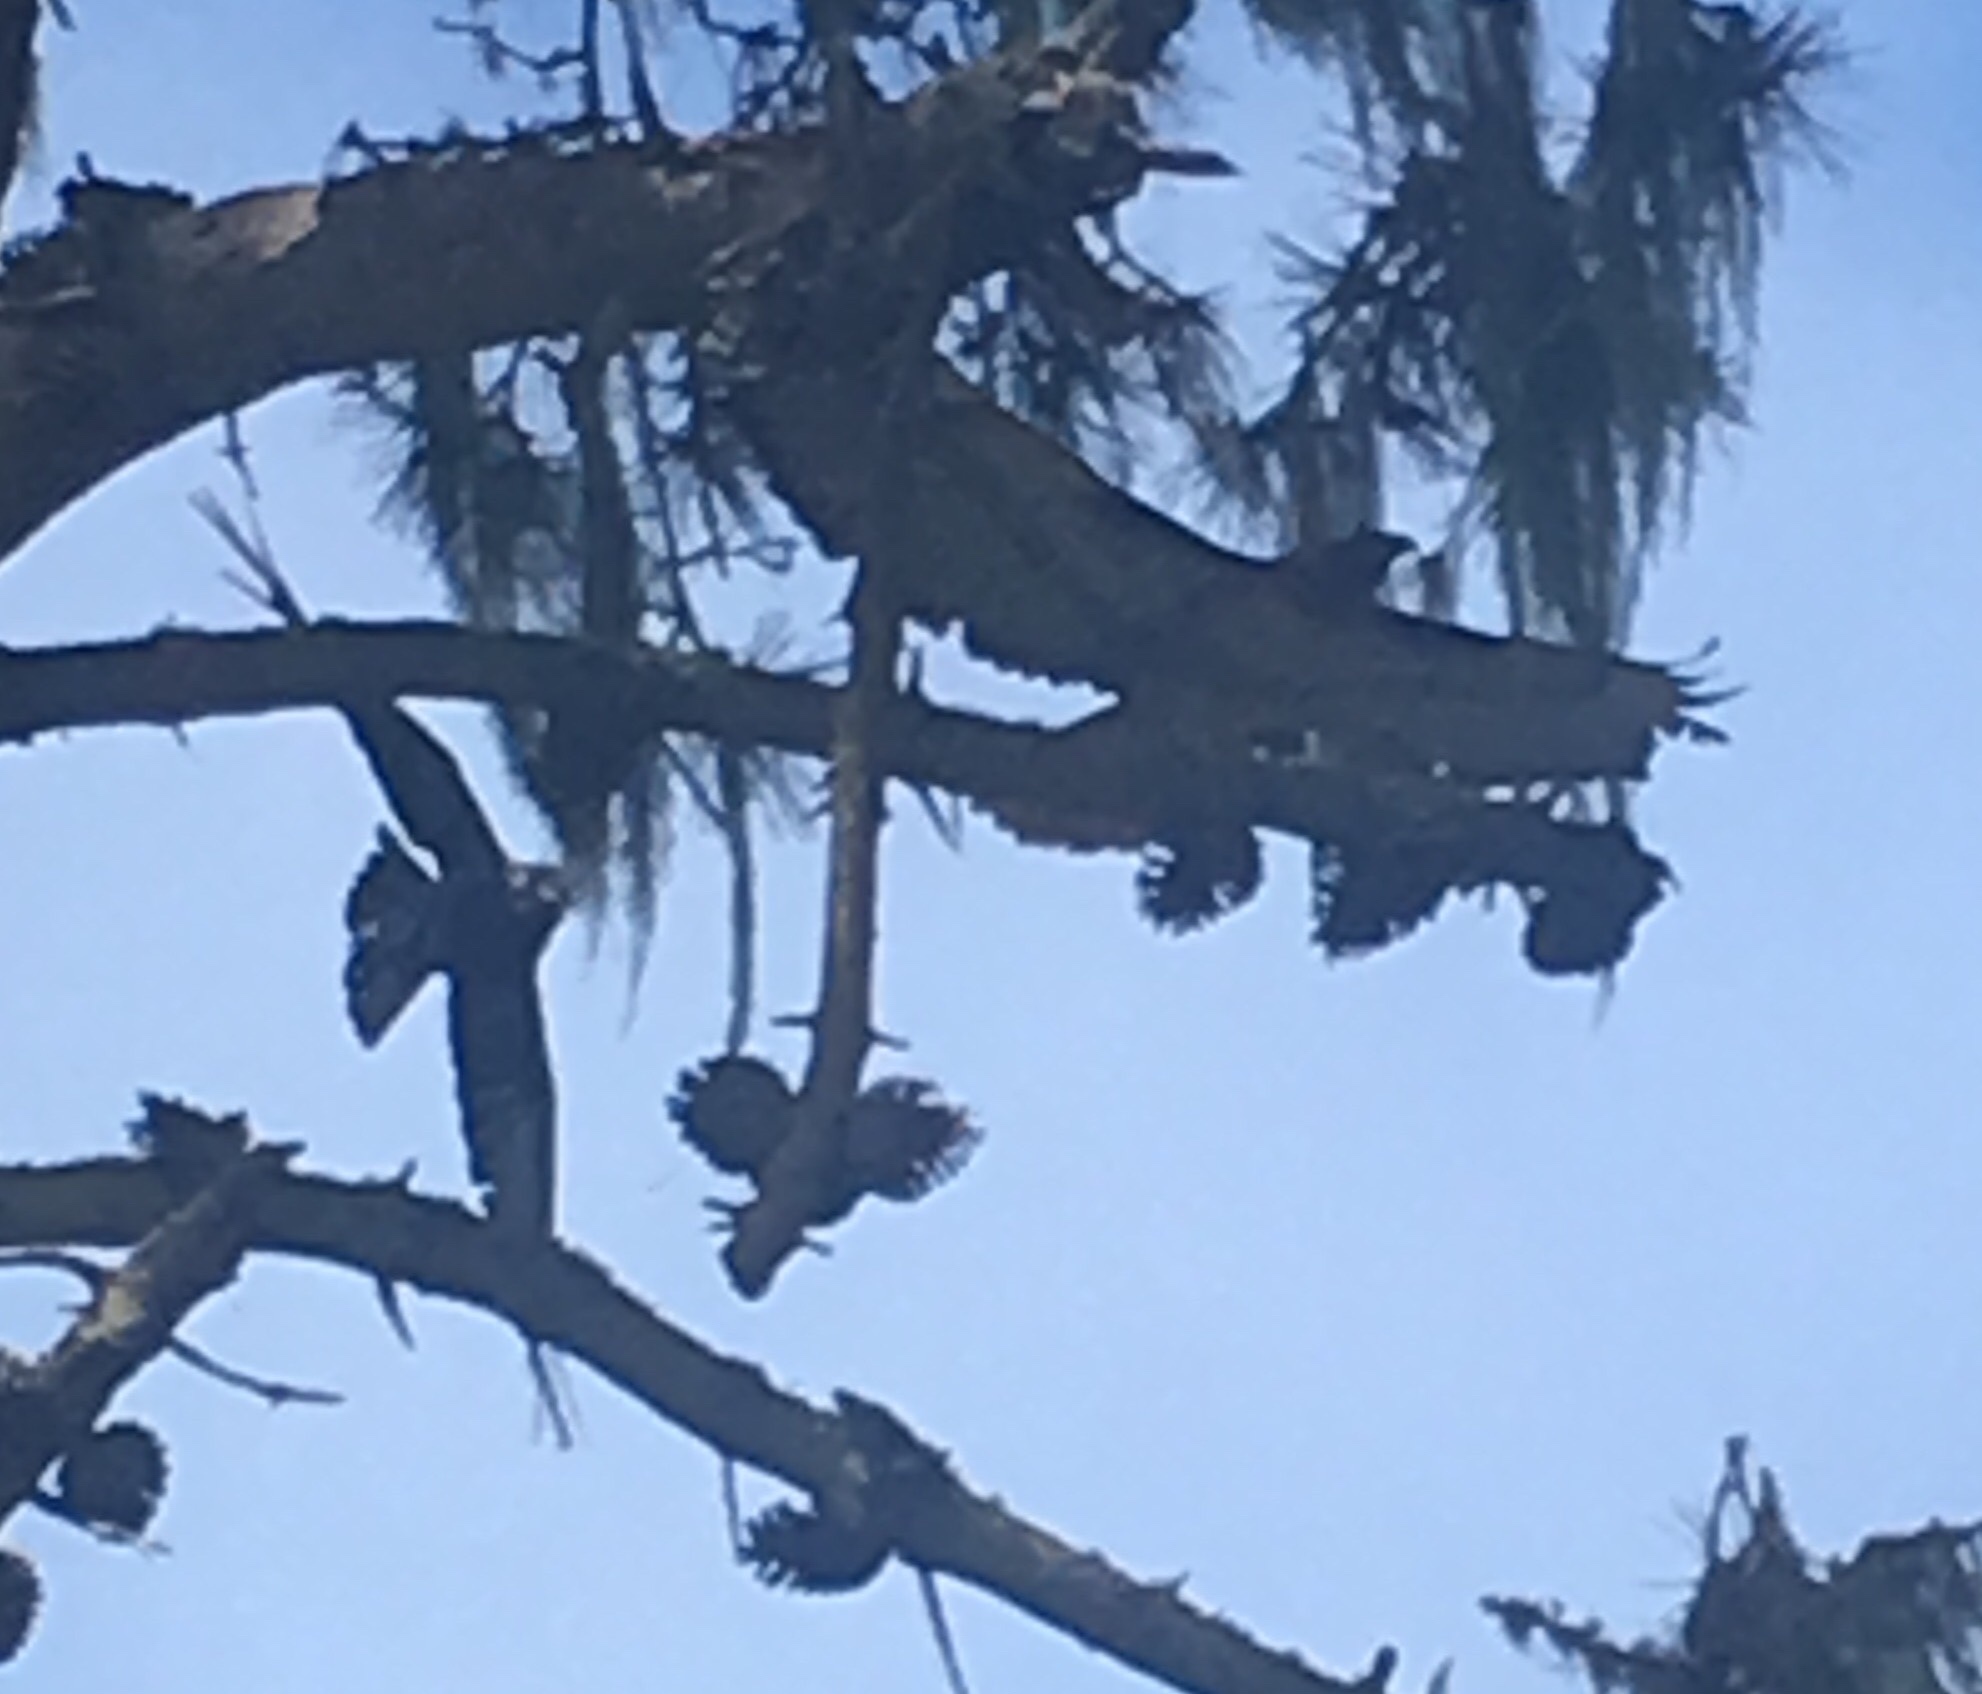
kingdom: Animalia
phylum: Chordata
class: Aves
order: Accipitriformes
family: Accipitridae
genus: Buteo
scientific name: Buteo jamaicensis
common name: Red-tailed hawk
